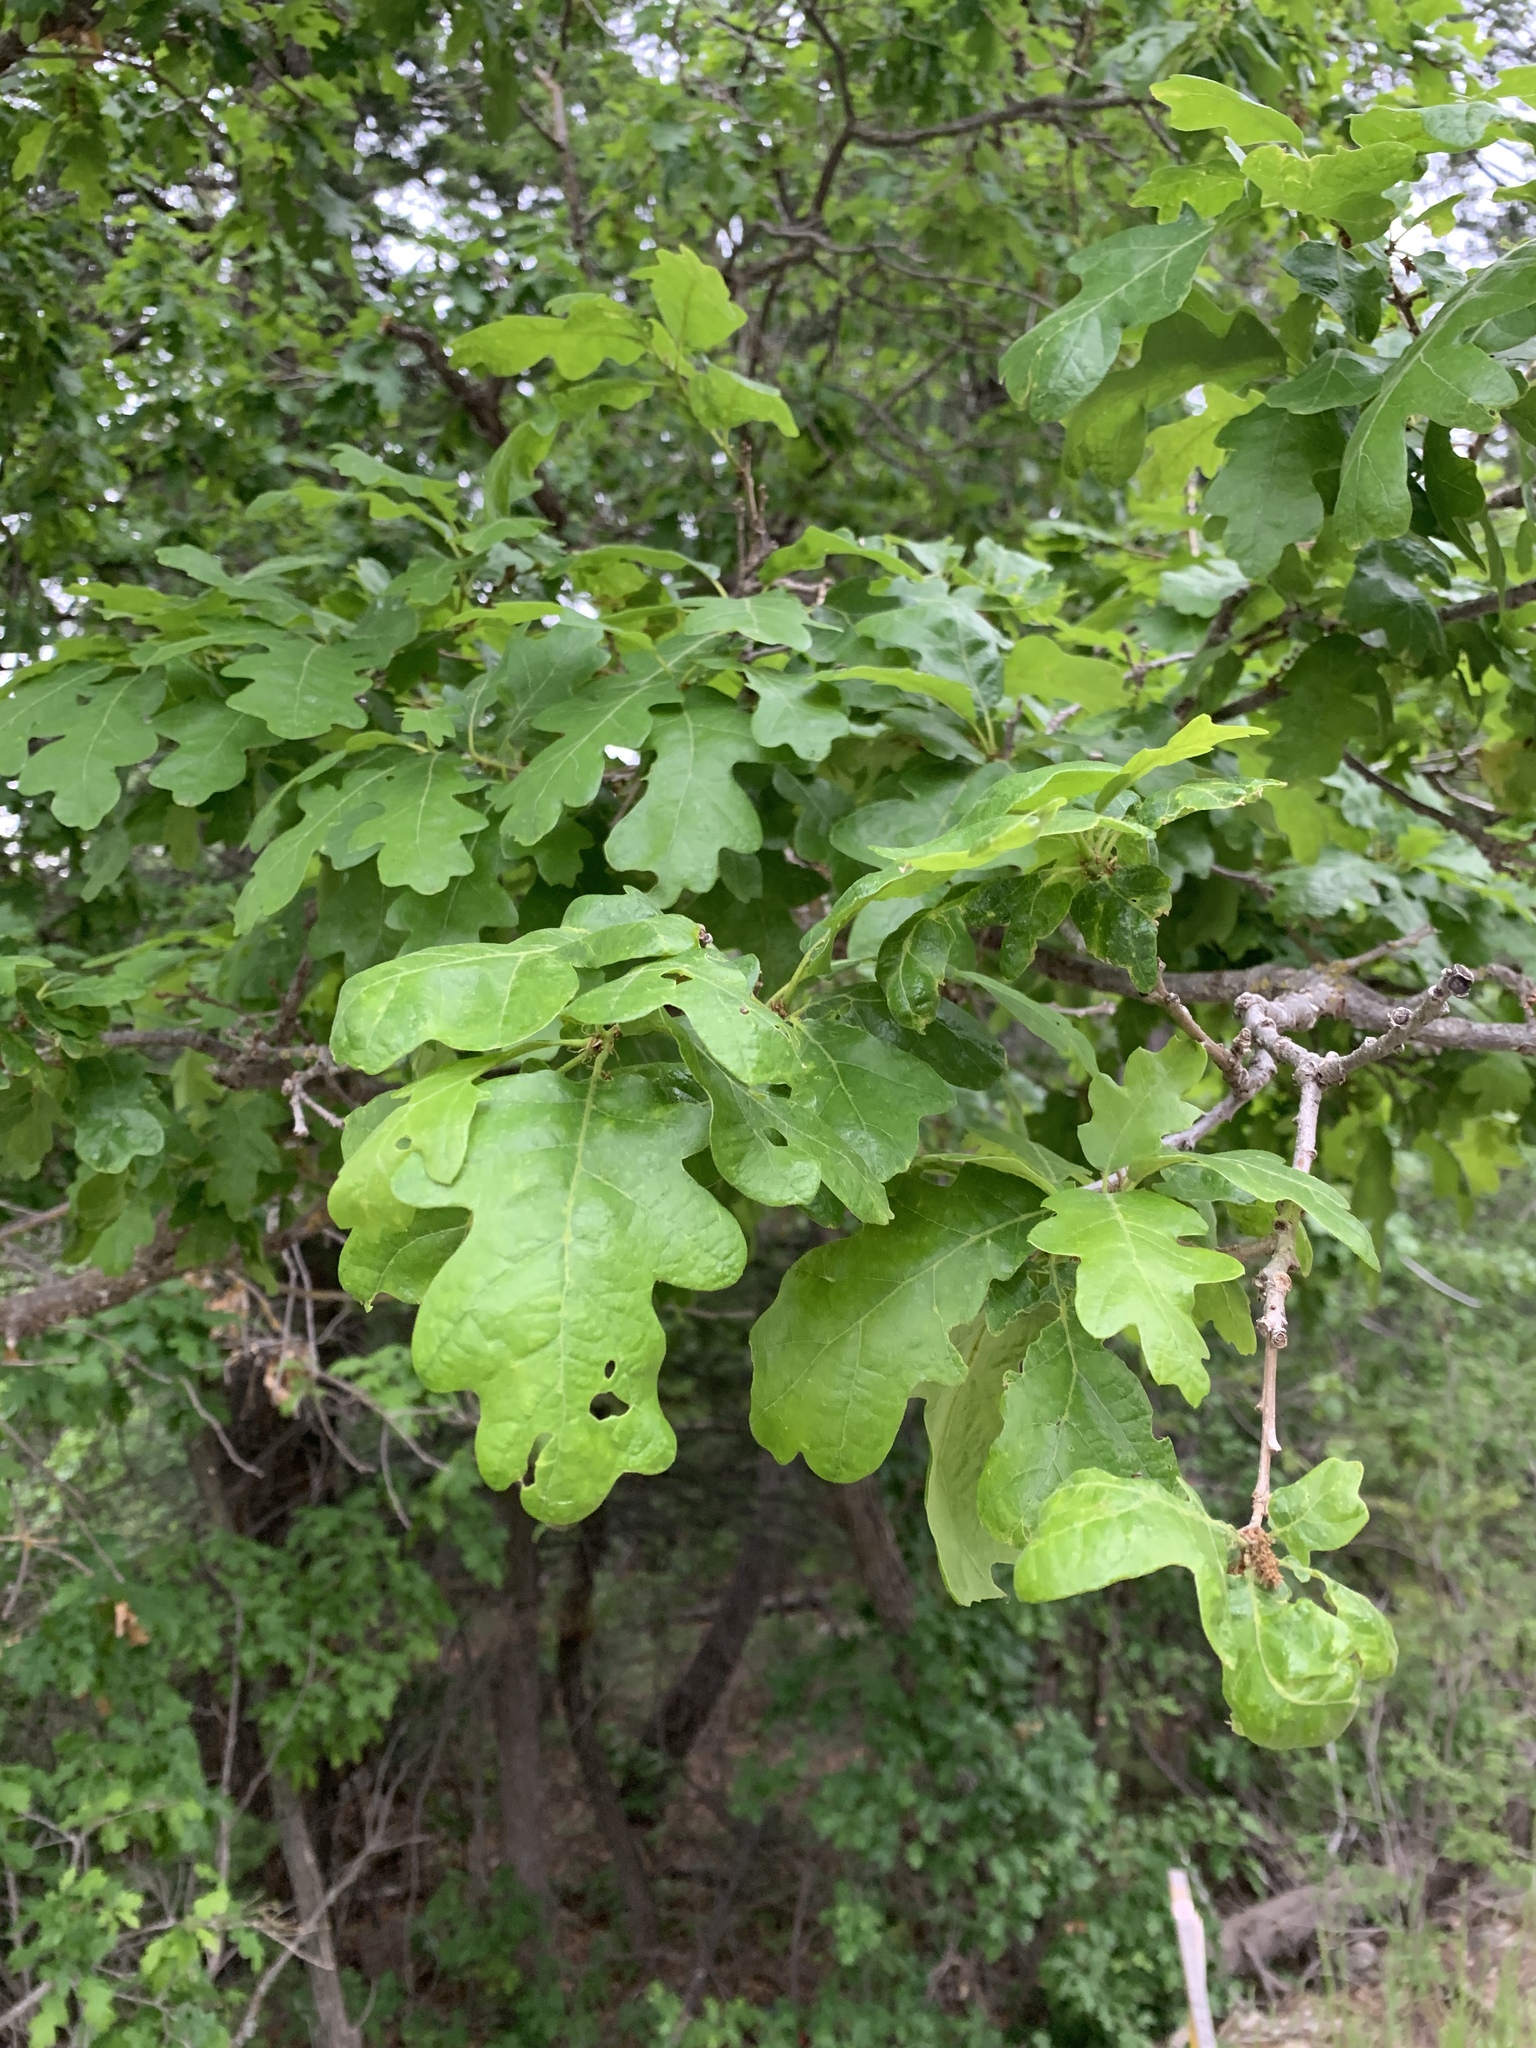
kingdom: Plantae
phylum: Tracheophyta
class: Magnoliopsida
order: Fagales
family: Fagaceae
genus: Quercus
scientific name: Quercus gambelii
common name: Gambel oak
